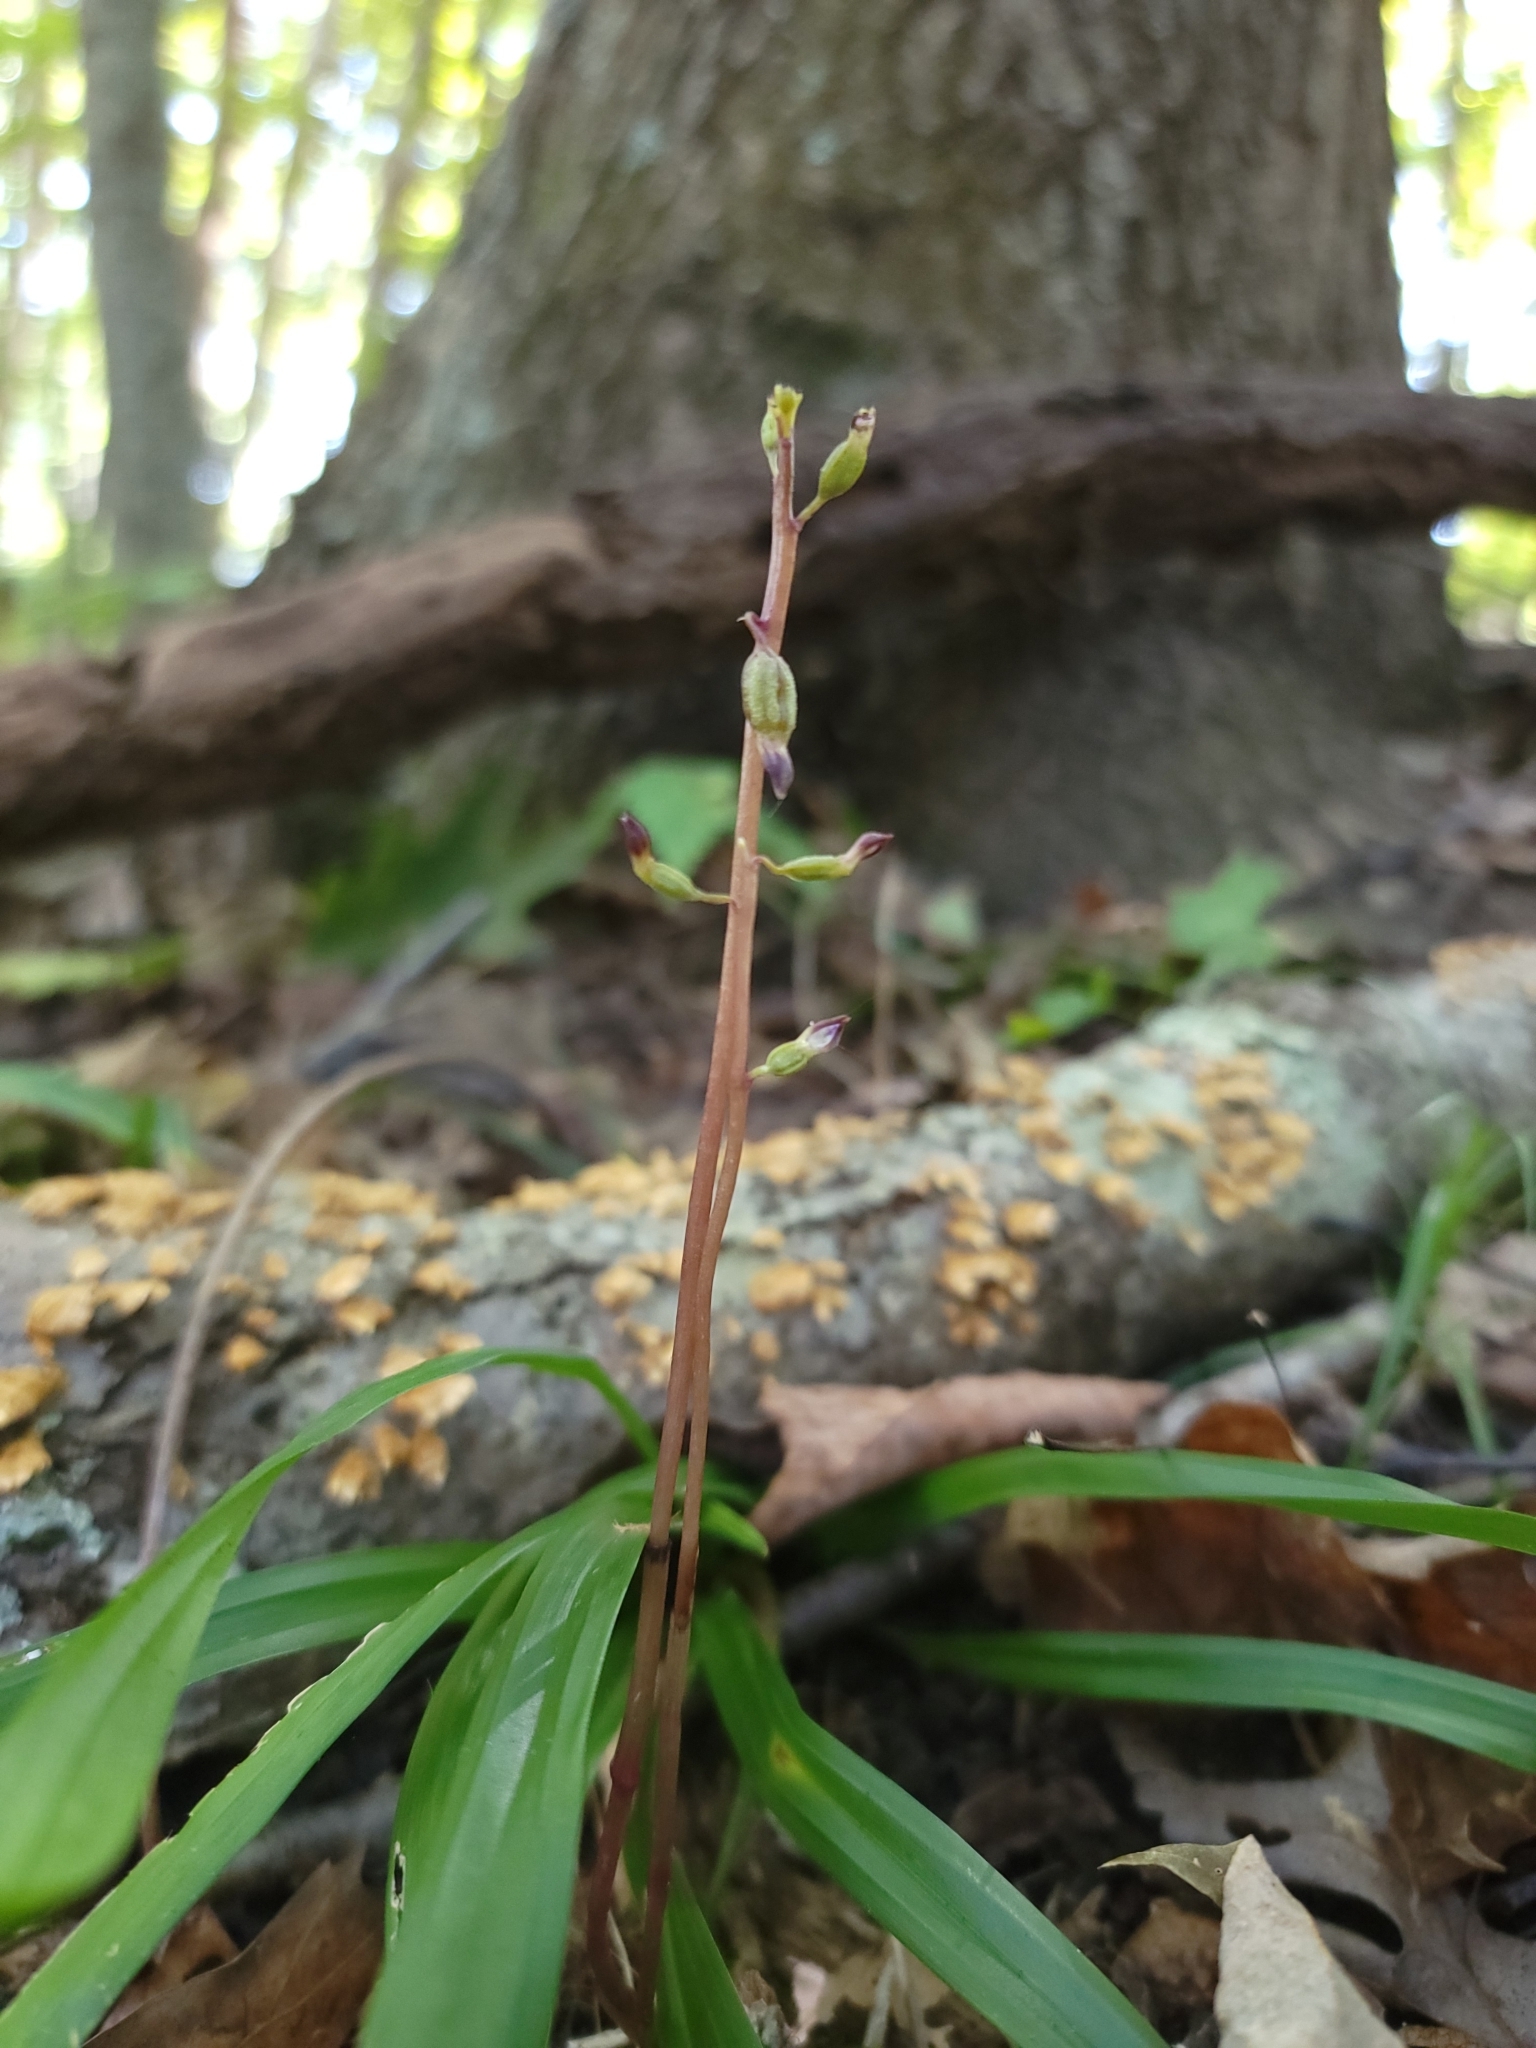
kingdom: Plantae
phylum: Tracheophyta
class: Liliopsida
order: Asparagales
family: Orchidaceae
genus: Corallorhiza
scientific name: Corallorhiza odontorhiza
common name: Autumn coralroot
